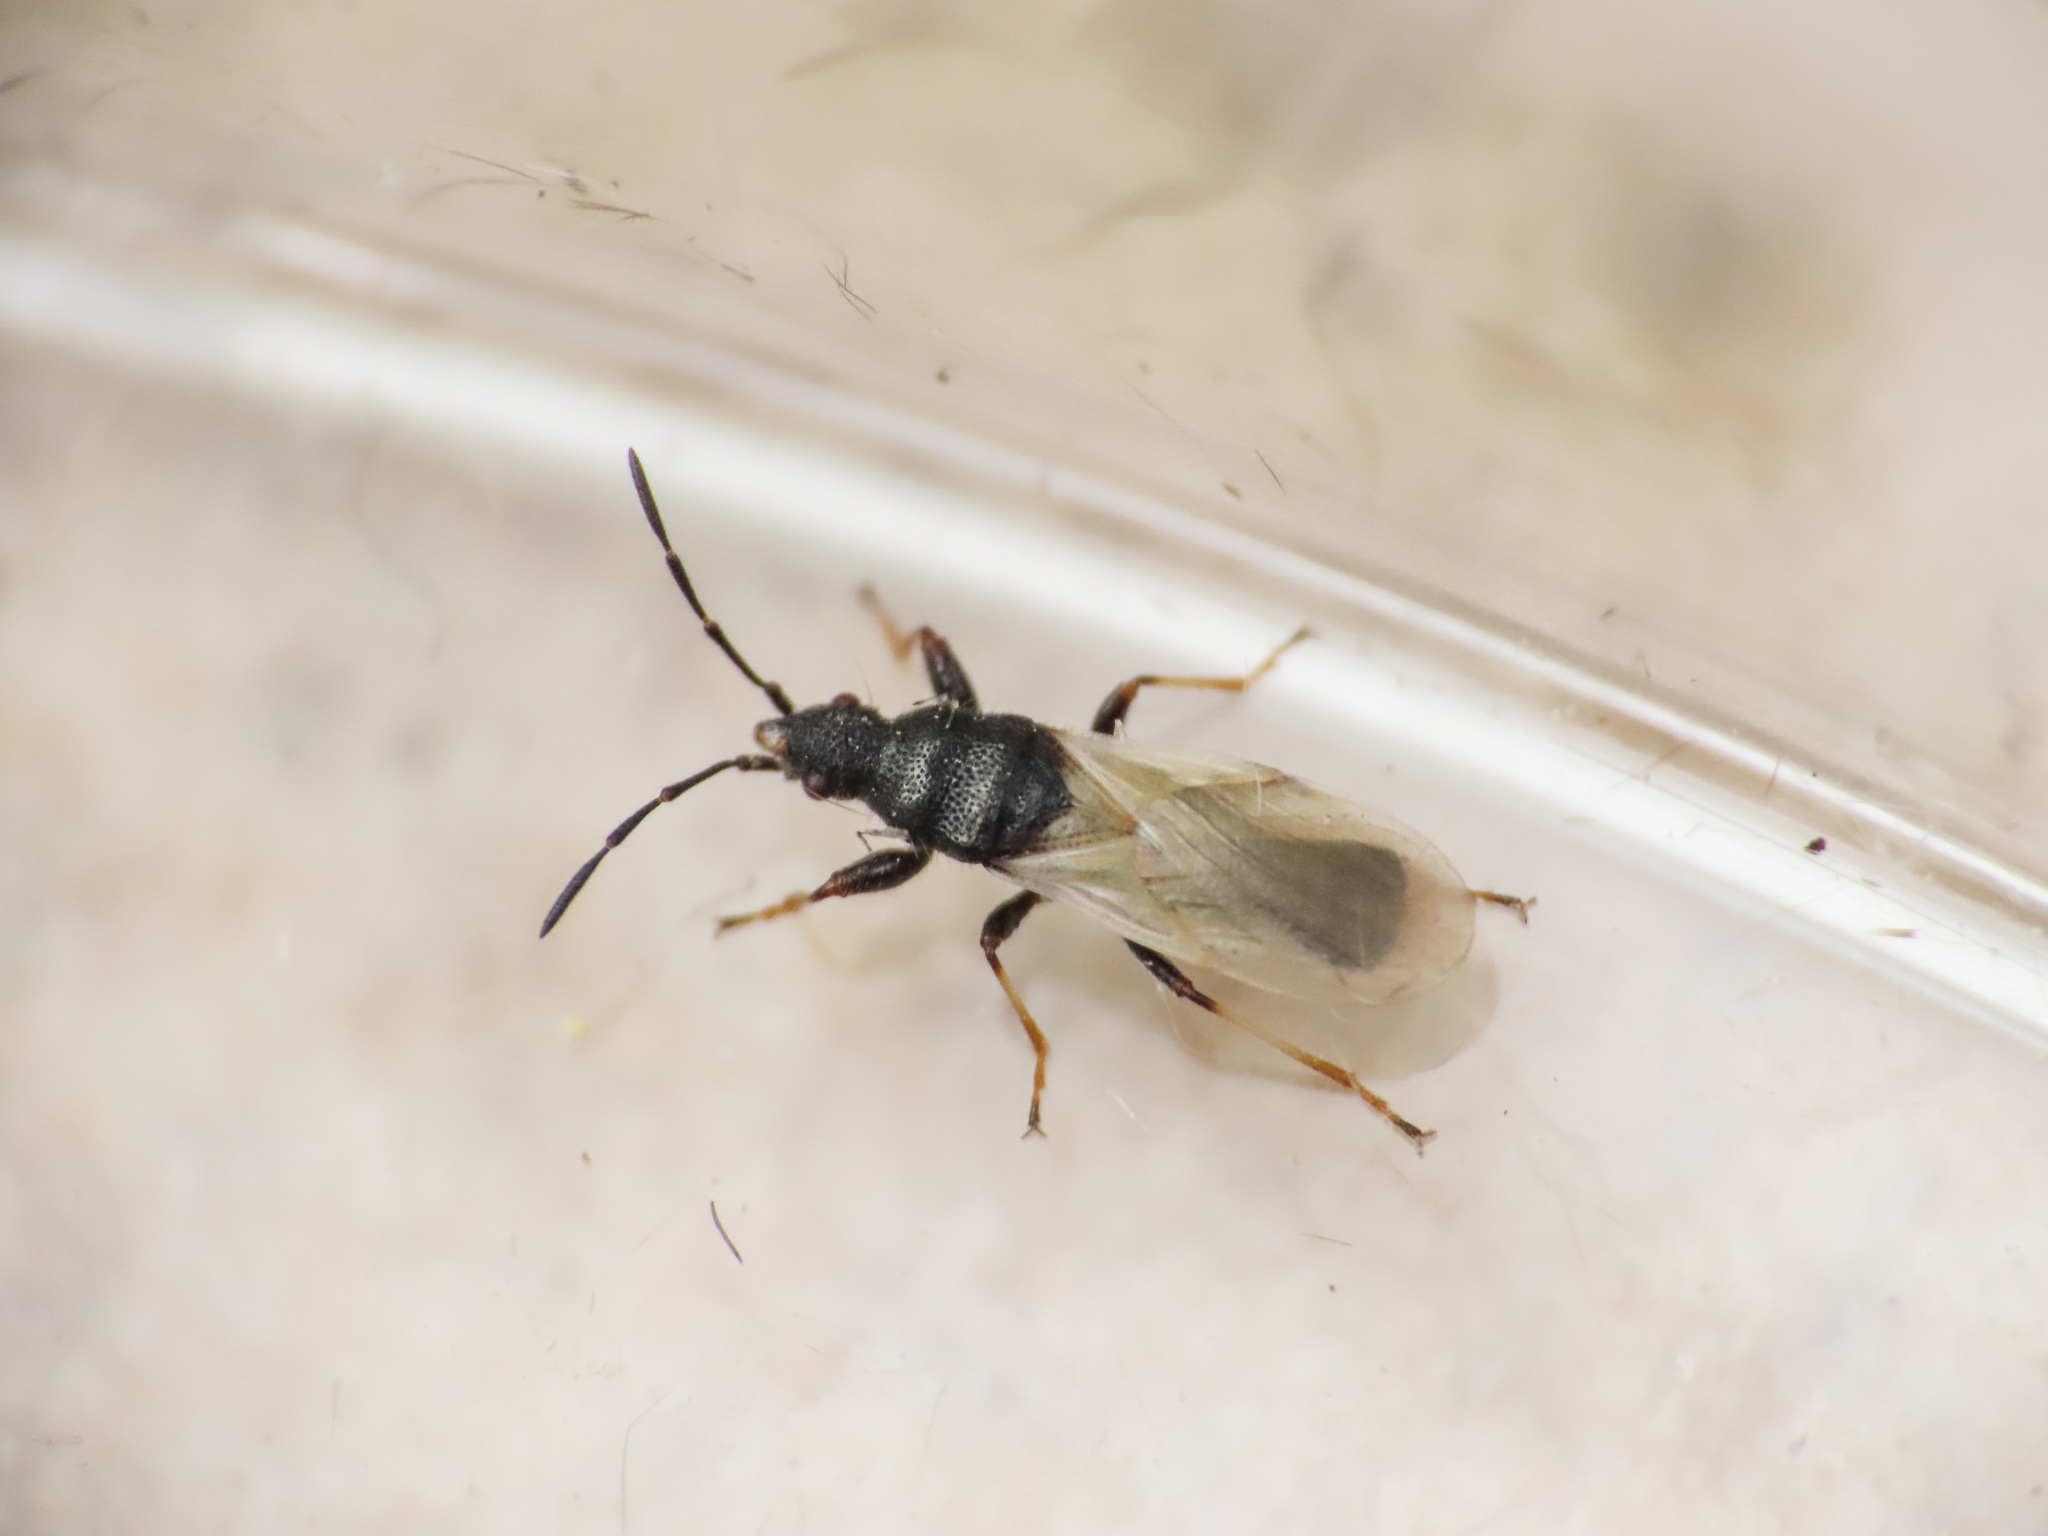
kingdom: Animalia
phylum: Arthropoda
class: Insecta
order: Hemiptera
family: Oxycarenidae
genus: Brachyplax
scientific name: Brachyplax tenuis
